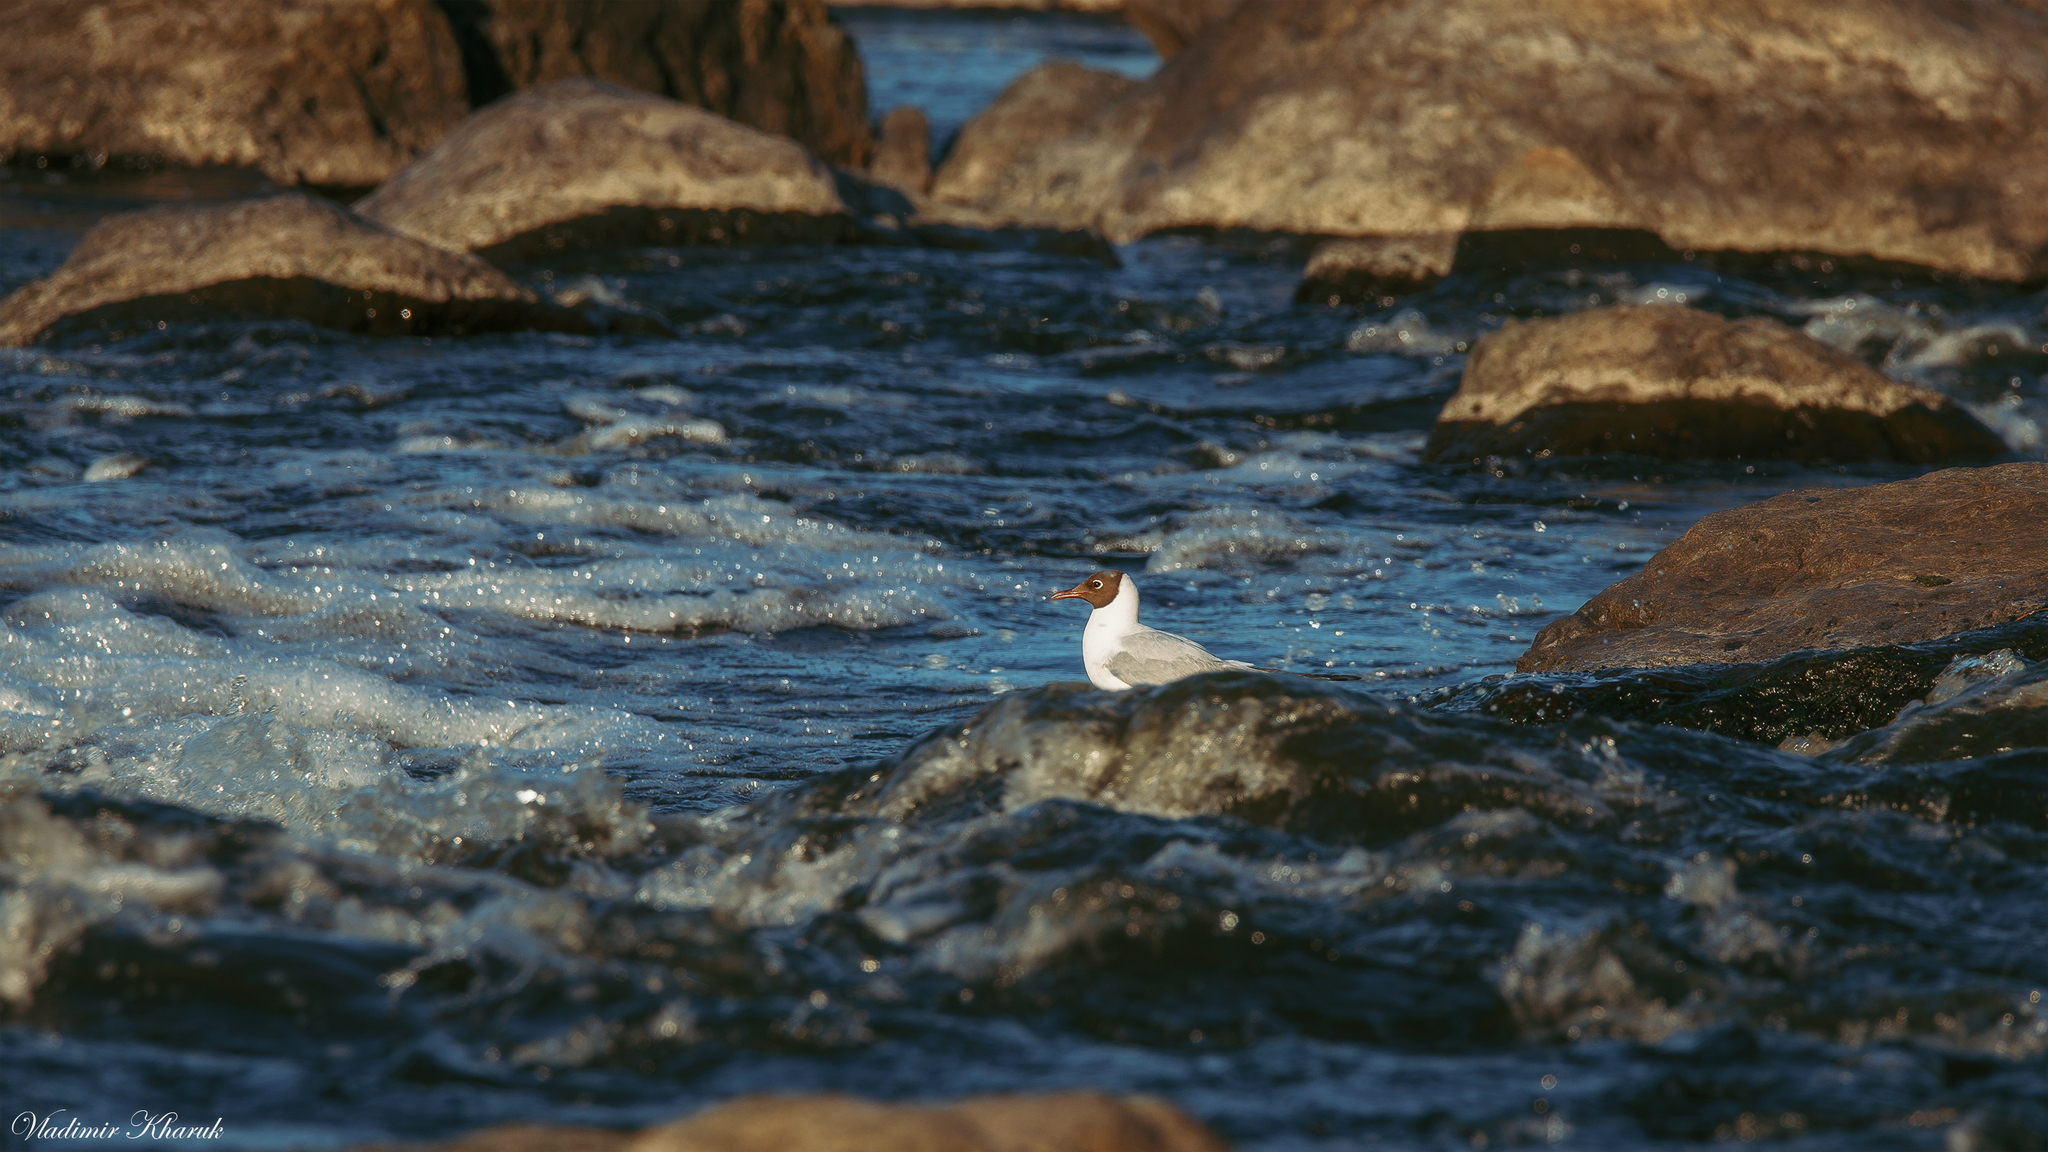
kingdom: Animalia
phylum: Chordata
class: Aves
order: Charadriiformes
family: Laridae
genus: Chroicocephalus
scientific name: Chroicocephalus ridibundus
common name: Black-headed gull
